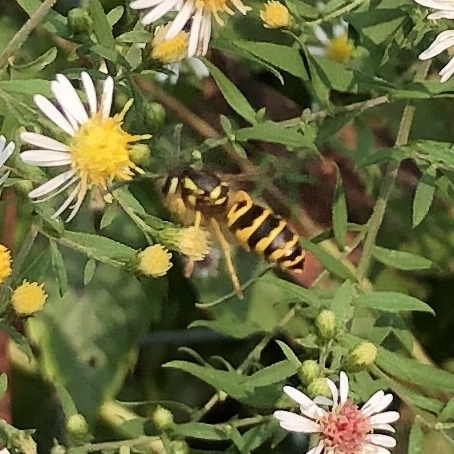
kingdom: Animalia
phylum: Arthropoda
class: Insecta
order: Hymenoptera
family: Vespidae
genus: Vespula
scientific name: Vespula maculifrons
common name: Eastern yellowjacket
